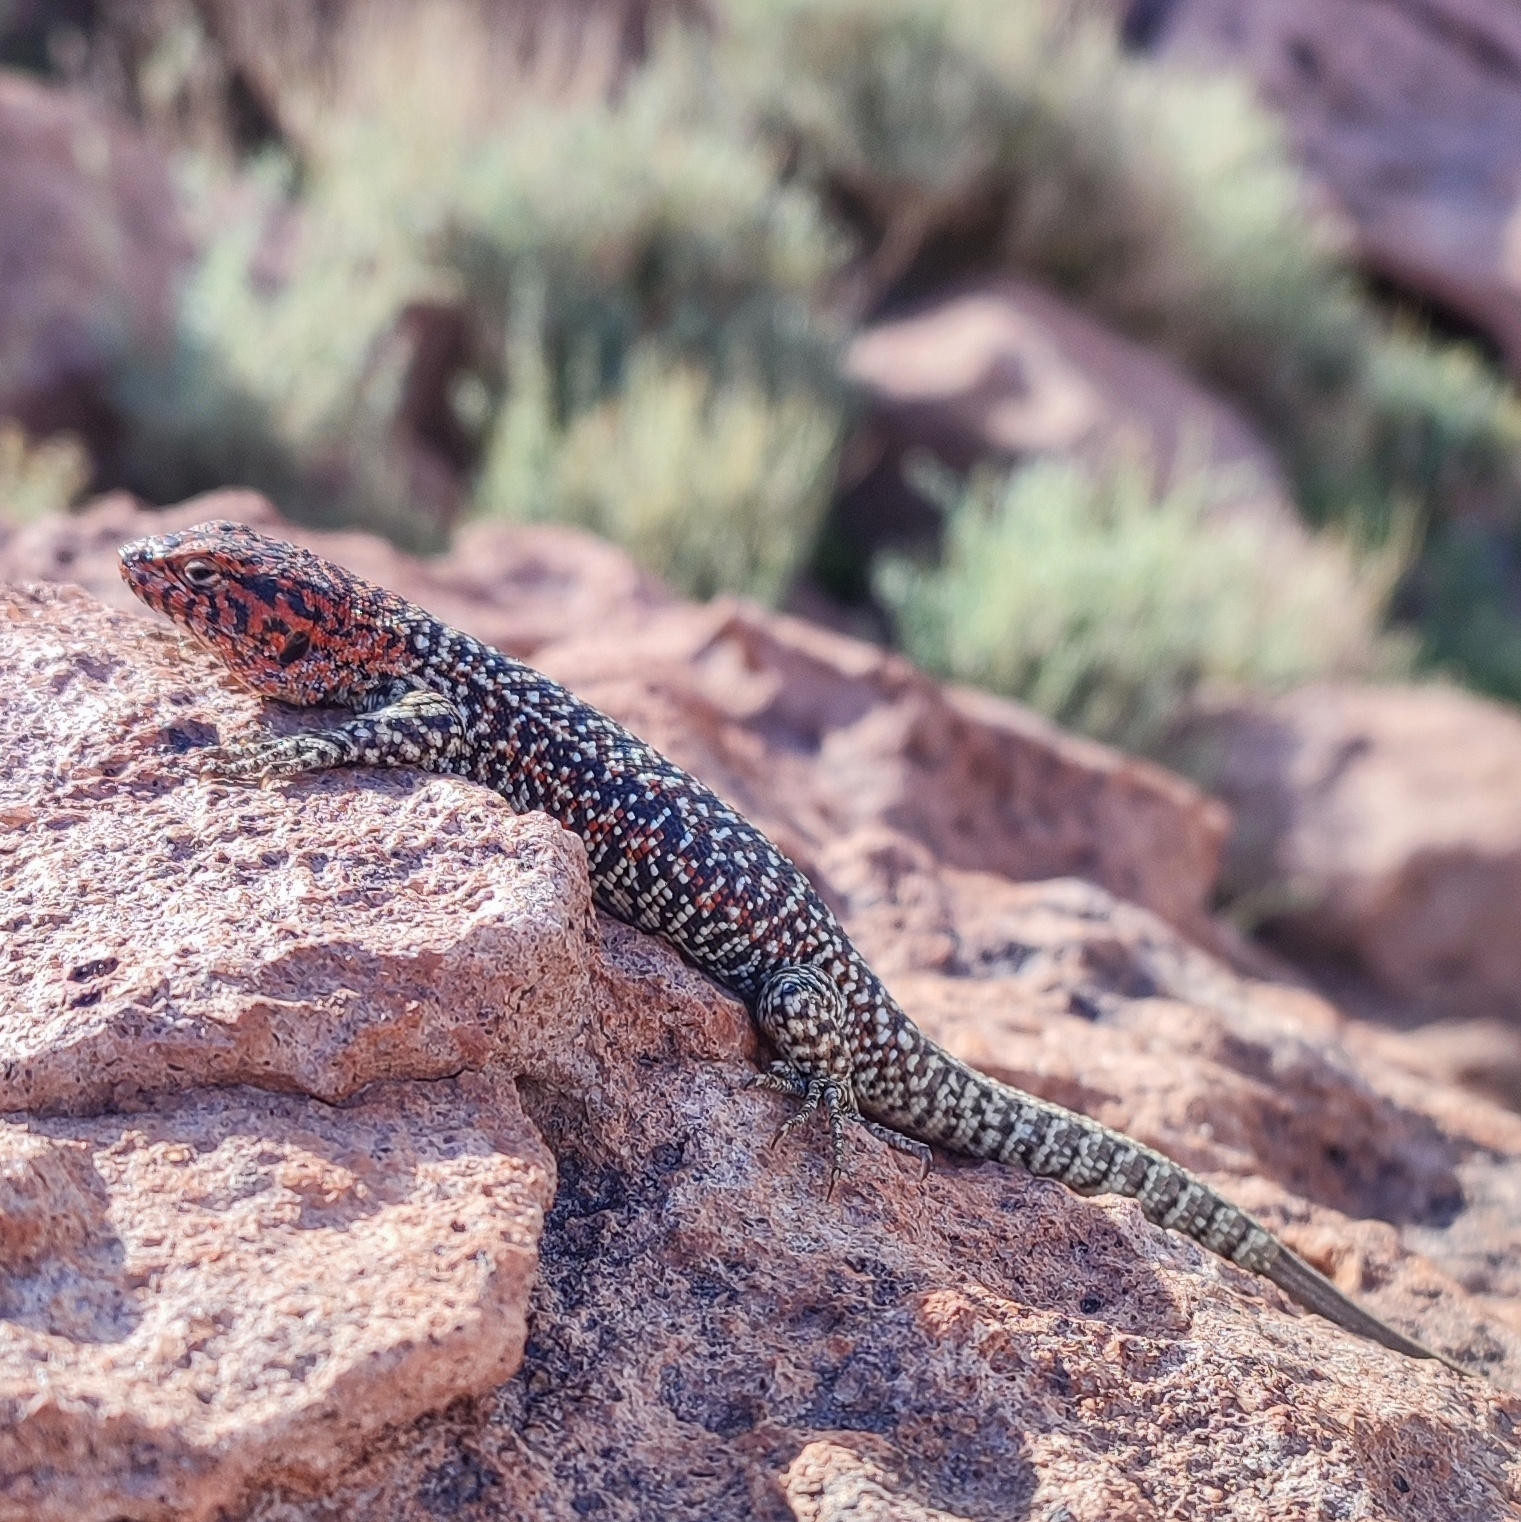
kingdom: Animalia
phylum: Chordata
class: Squamata
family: Liolaemidae
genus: Liolaemus
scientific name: Liolaemus constanzae
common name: Constanze's tree iguana
